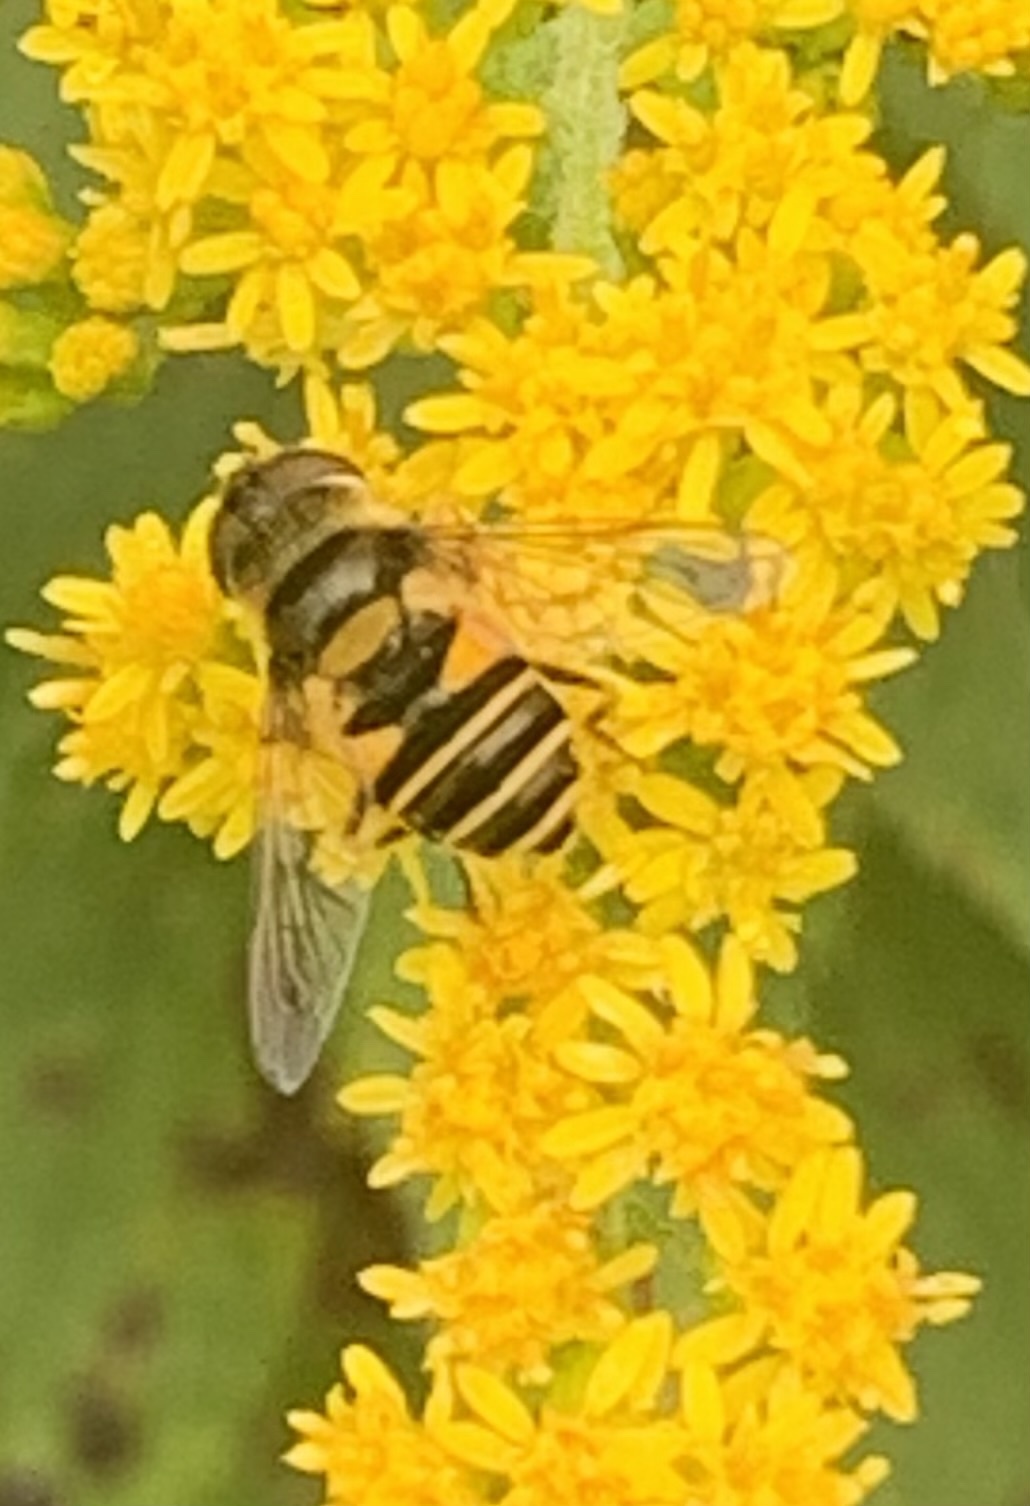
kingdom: Animalia
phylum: Arthropoda
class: Insecta
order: Diptera
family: Syrphidae
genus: Eristalis
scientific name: Eristalis transversa
